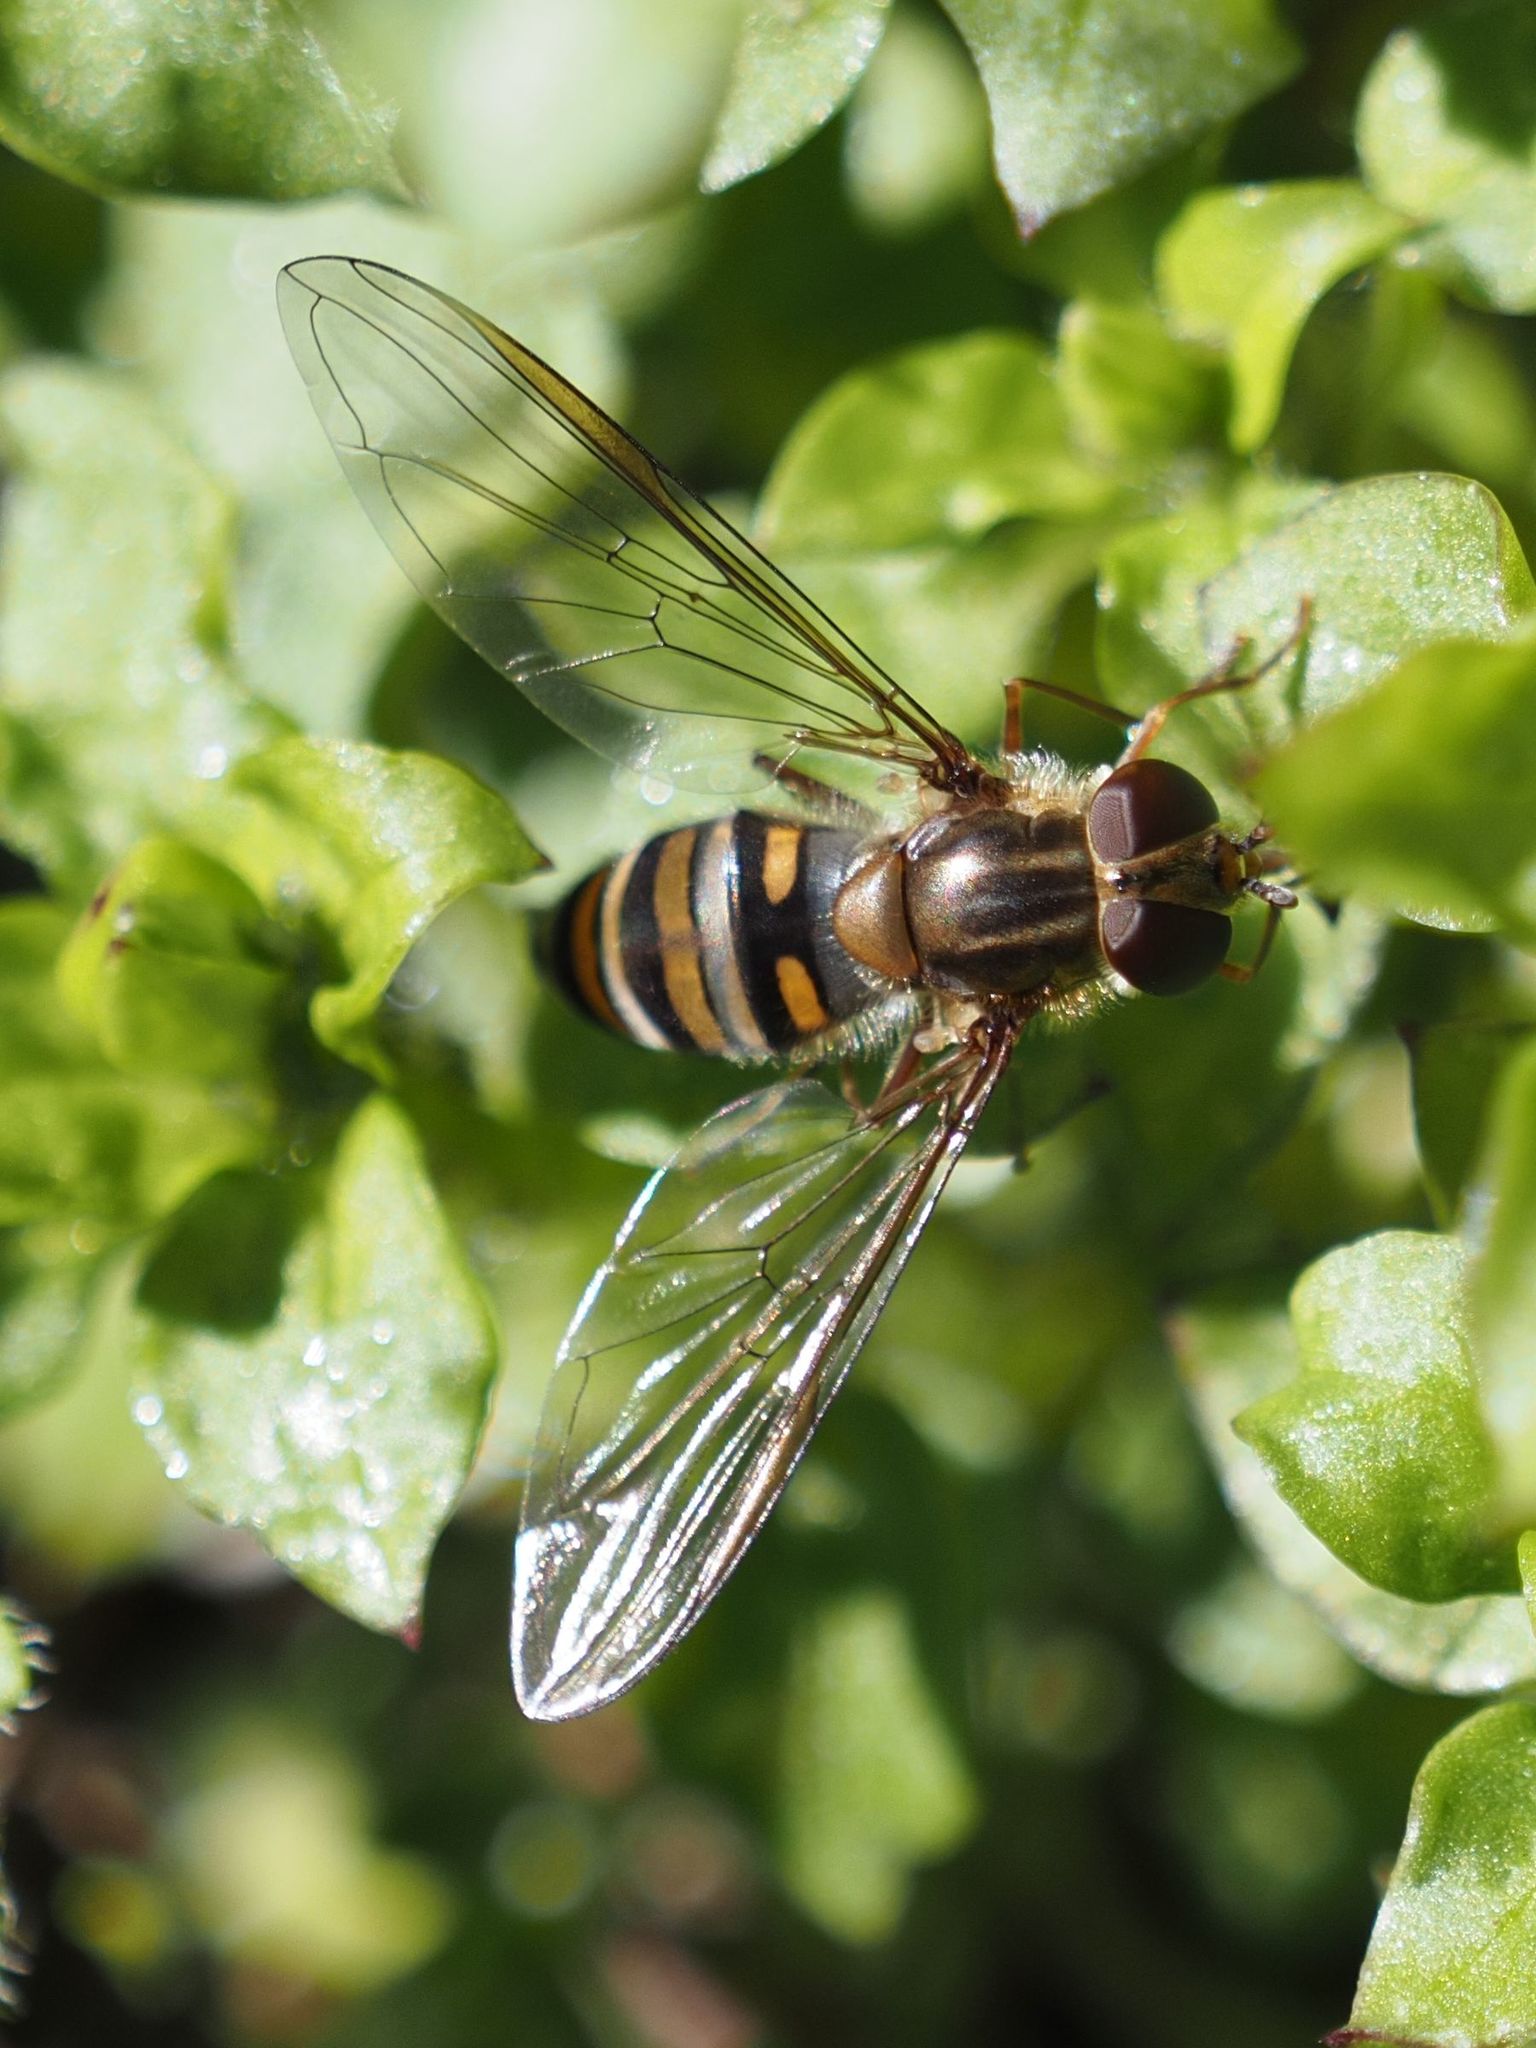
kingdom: Animalia
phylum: Arthropoda
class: Insecta
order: Diptera
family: Syrphidae
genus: Episyrphus
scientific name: Episyrphus balteatus
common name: Marmalade hoverfly
